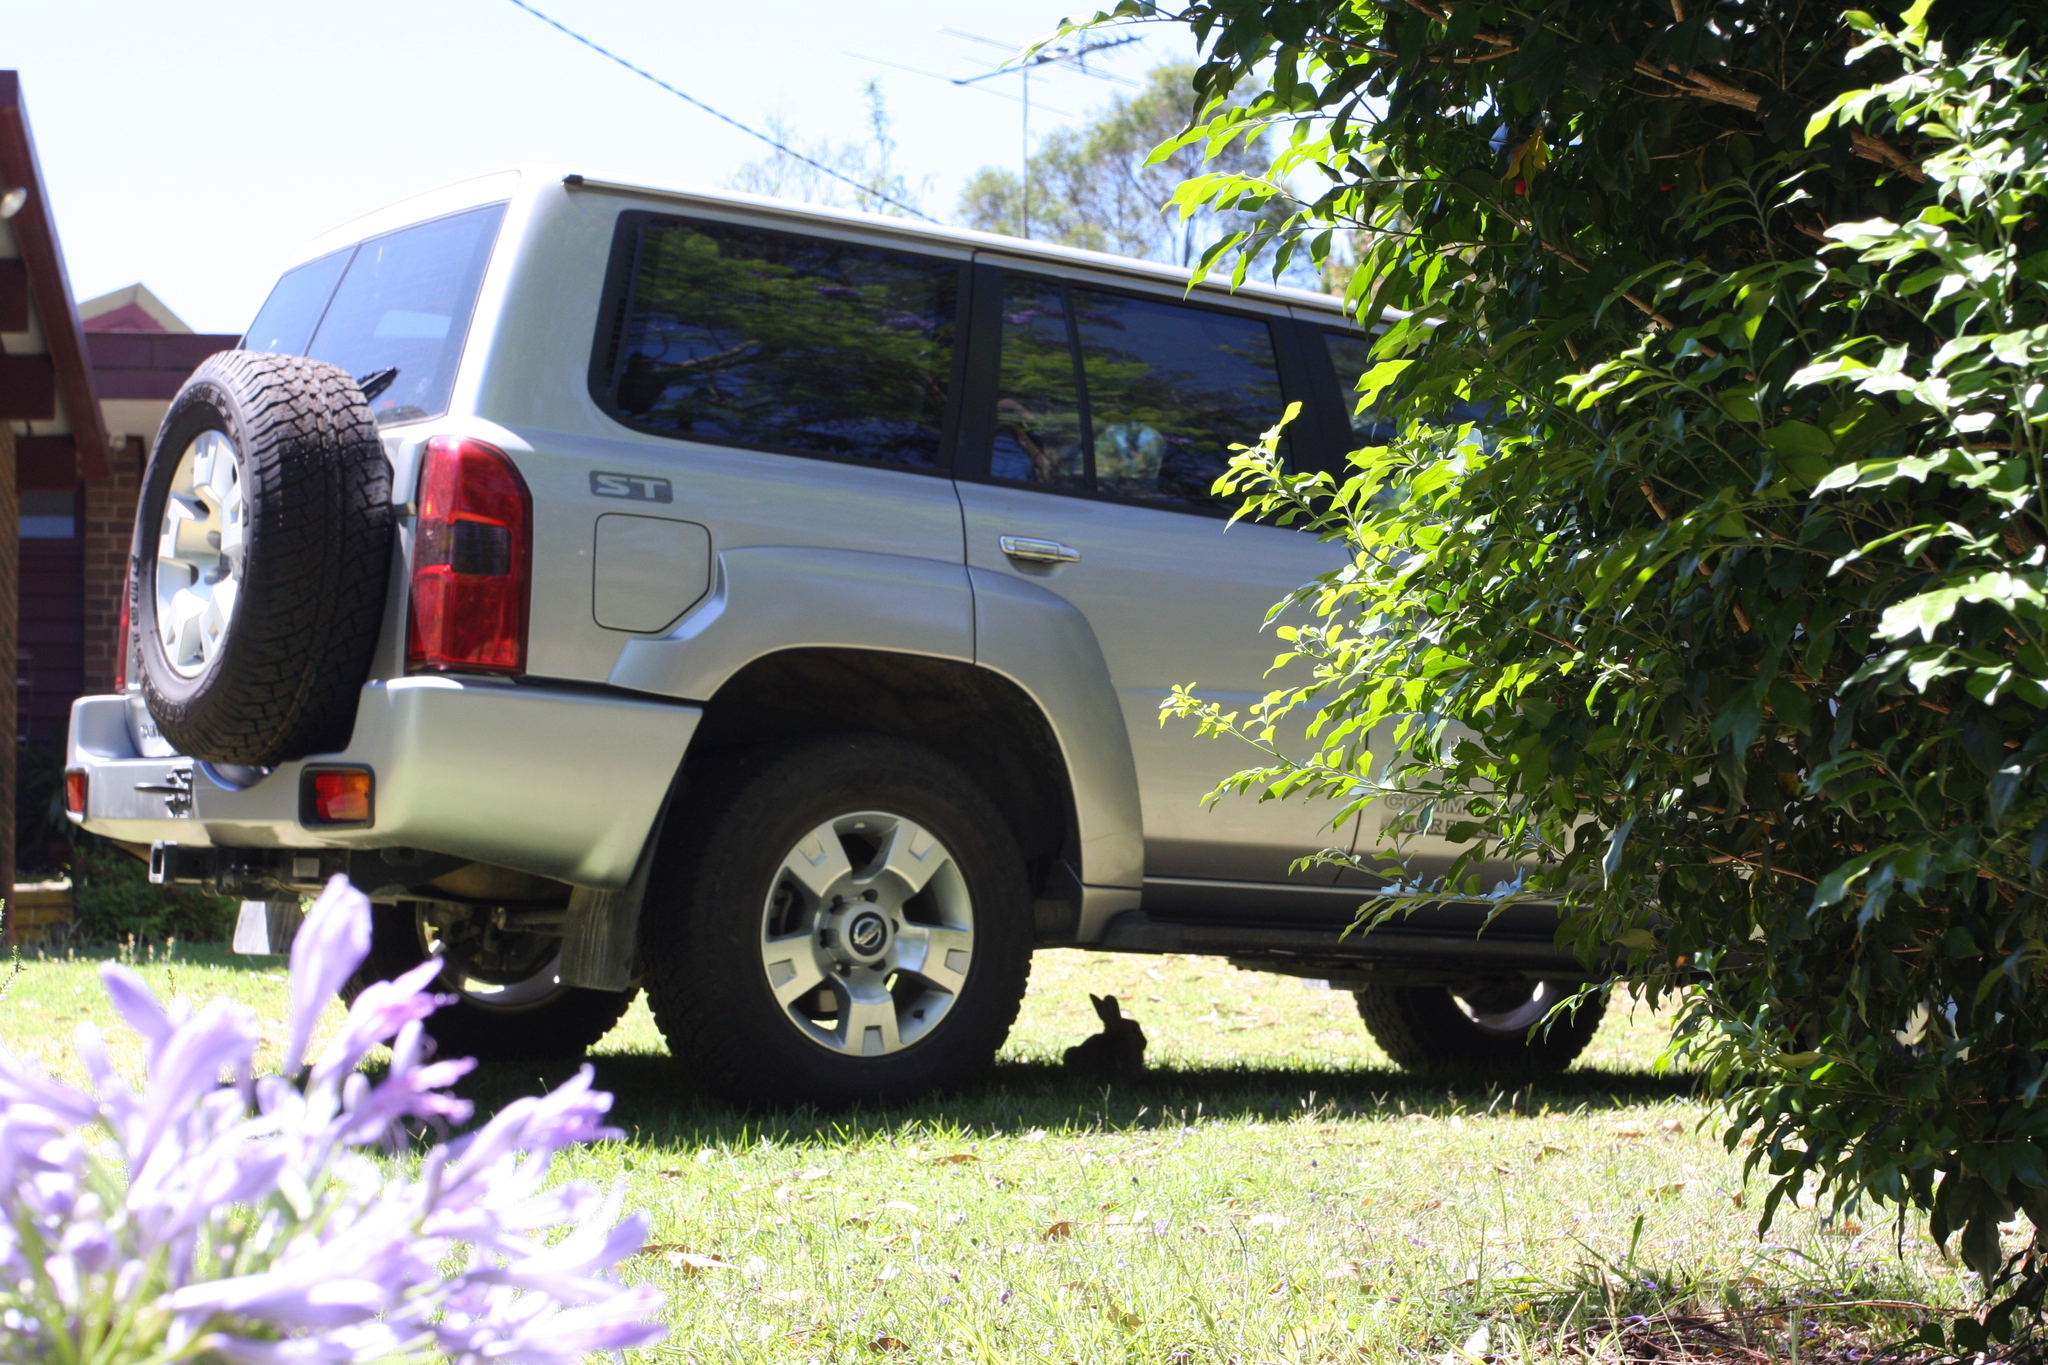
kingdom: Animalia
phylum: Chordata
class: Mammalia
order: Lagomorpha
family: Leporidae
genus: Oryctolagus
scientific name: Oryctolagus cuniculus
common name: European rabbit
